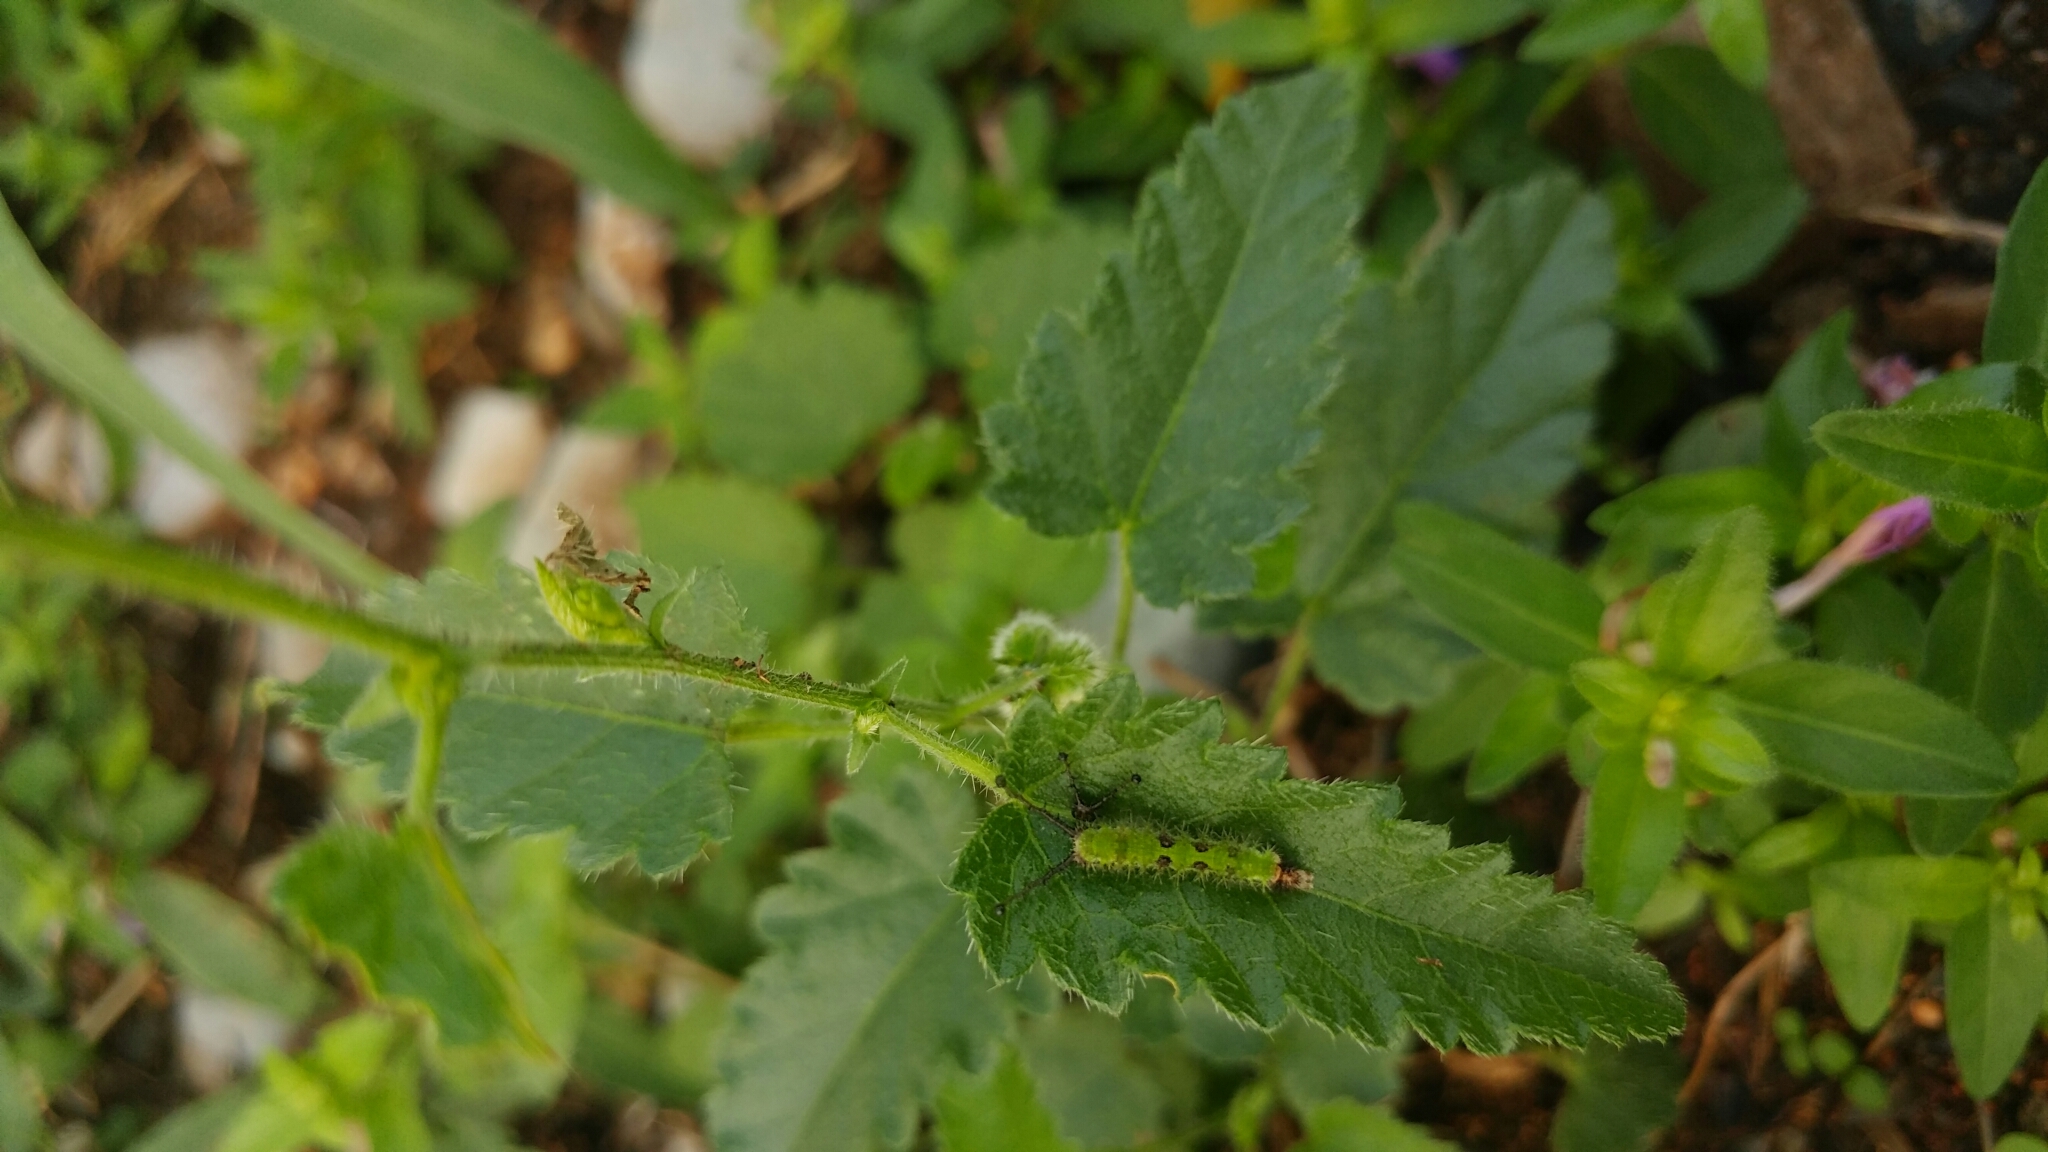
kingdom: Plantae
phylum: Tracheophyta
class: Magnoliopsida
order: Malpighiales
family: Euphorbiaceae
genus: Tragia
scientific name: Tragia nepetifolia
